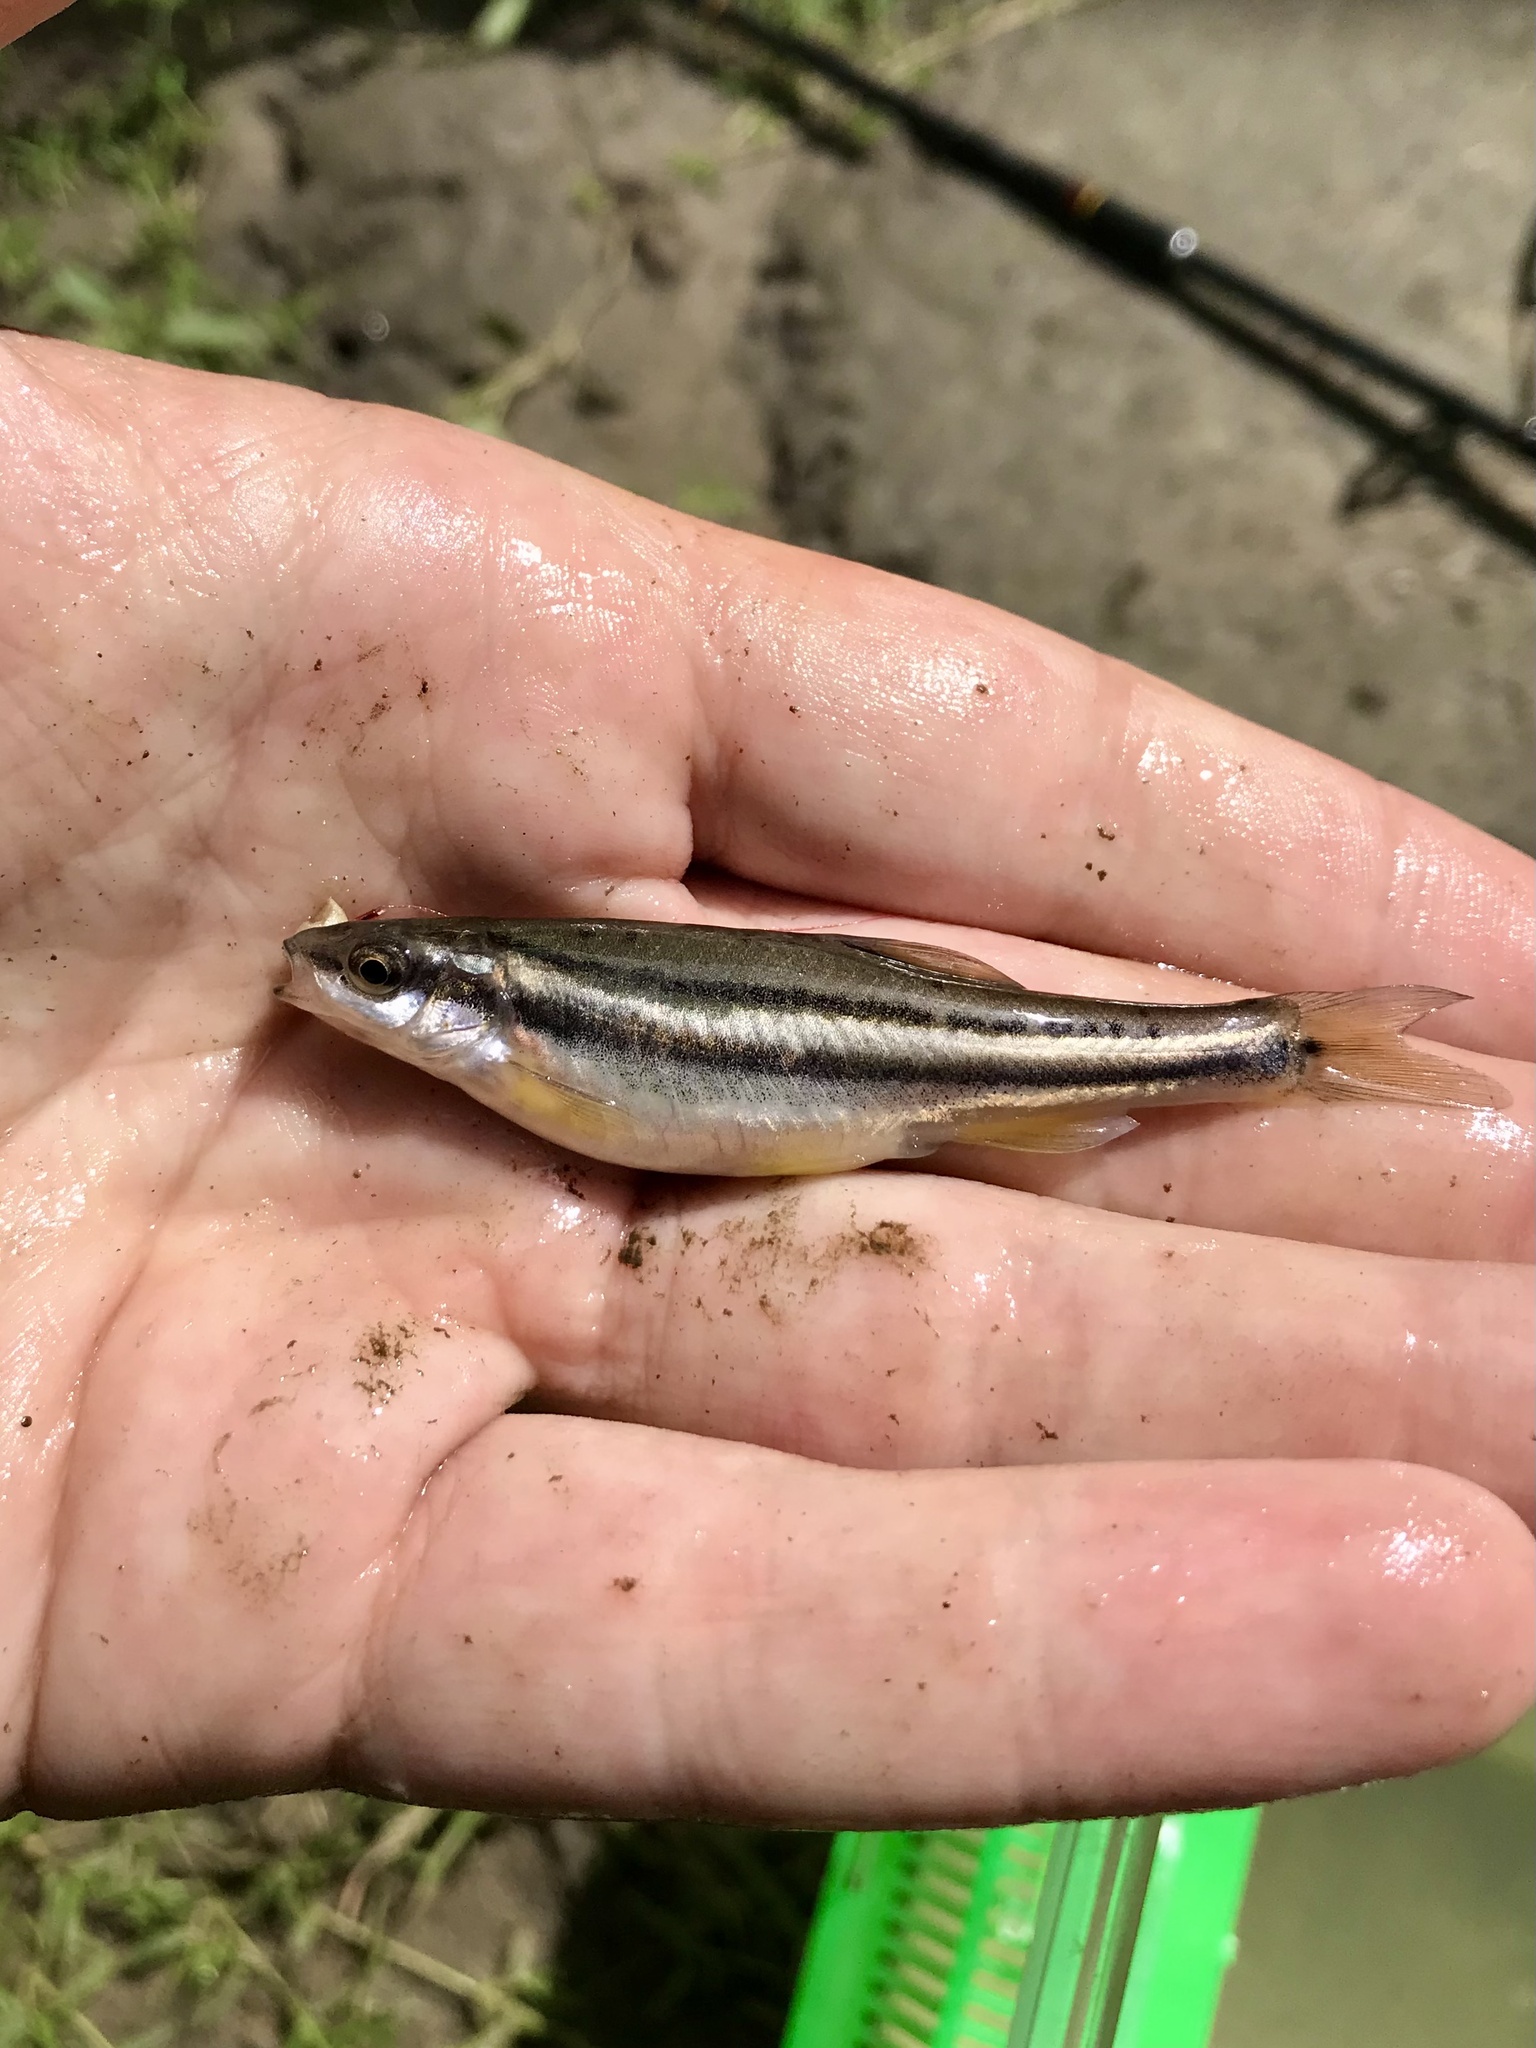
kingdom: Animalia
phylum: Chordata
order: Cypriniformes
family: Cyprinidae
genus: Chrosomus
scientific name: Chrosomus erythrogaster
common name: Southern redbelly dace
